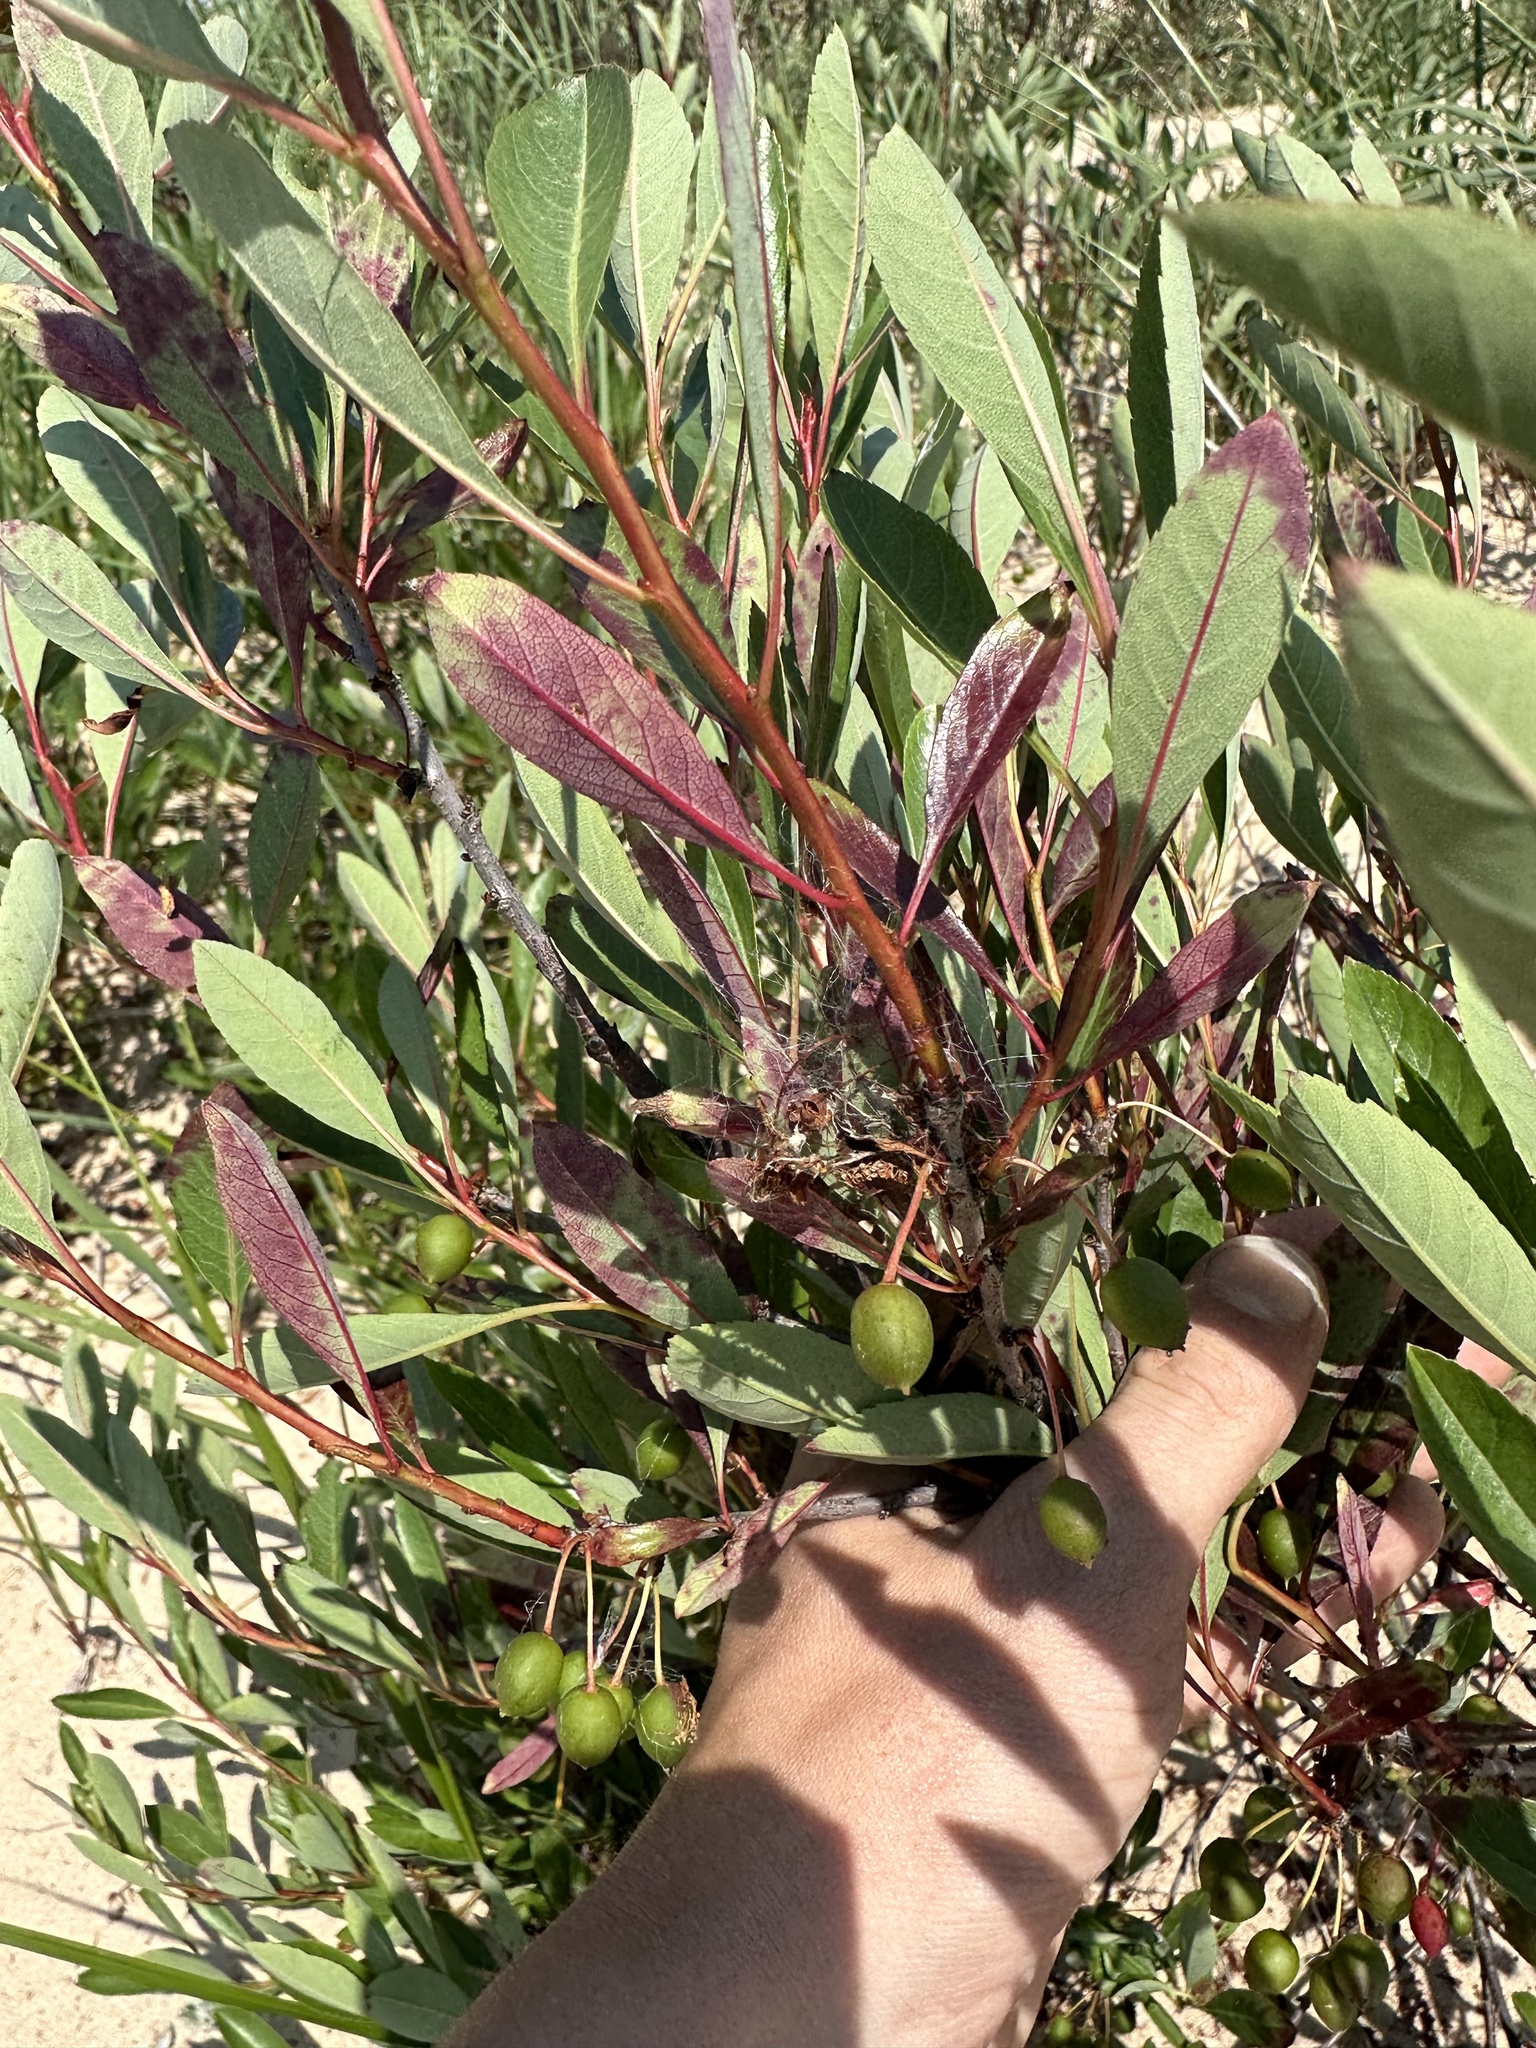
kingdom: Plantae
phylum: Tracheophyta
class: Magnoliopsida
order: Rosales
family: Rosaceae
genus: Prunus
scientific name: Prunus pumila
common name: Dwarf cherry
